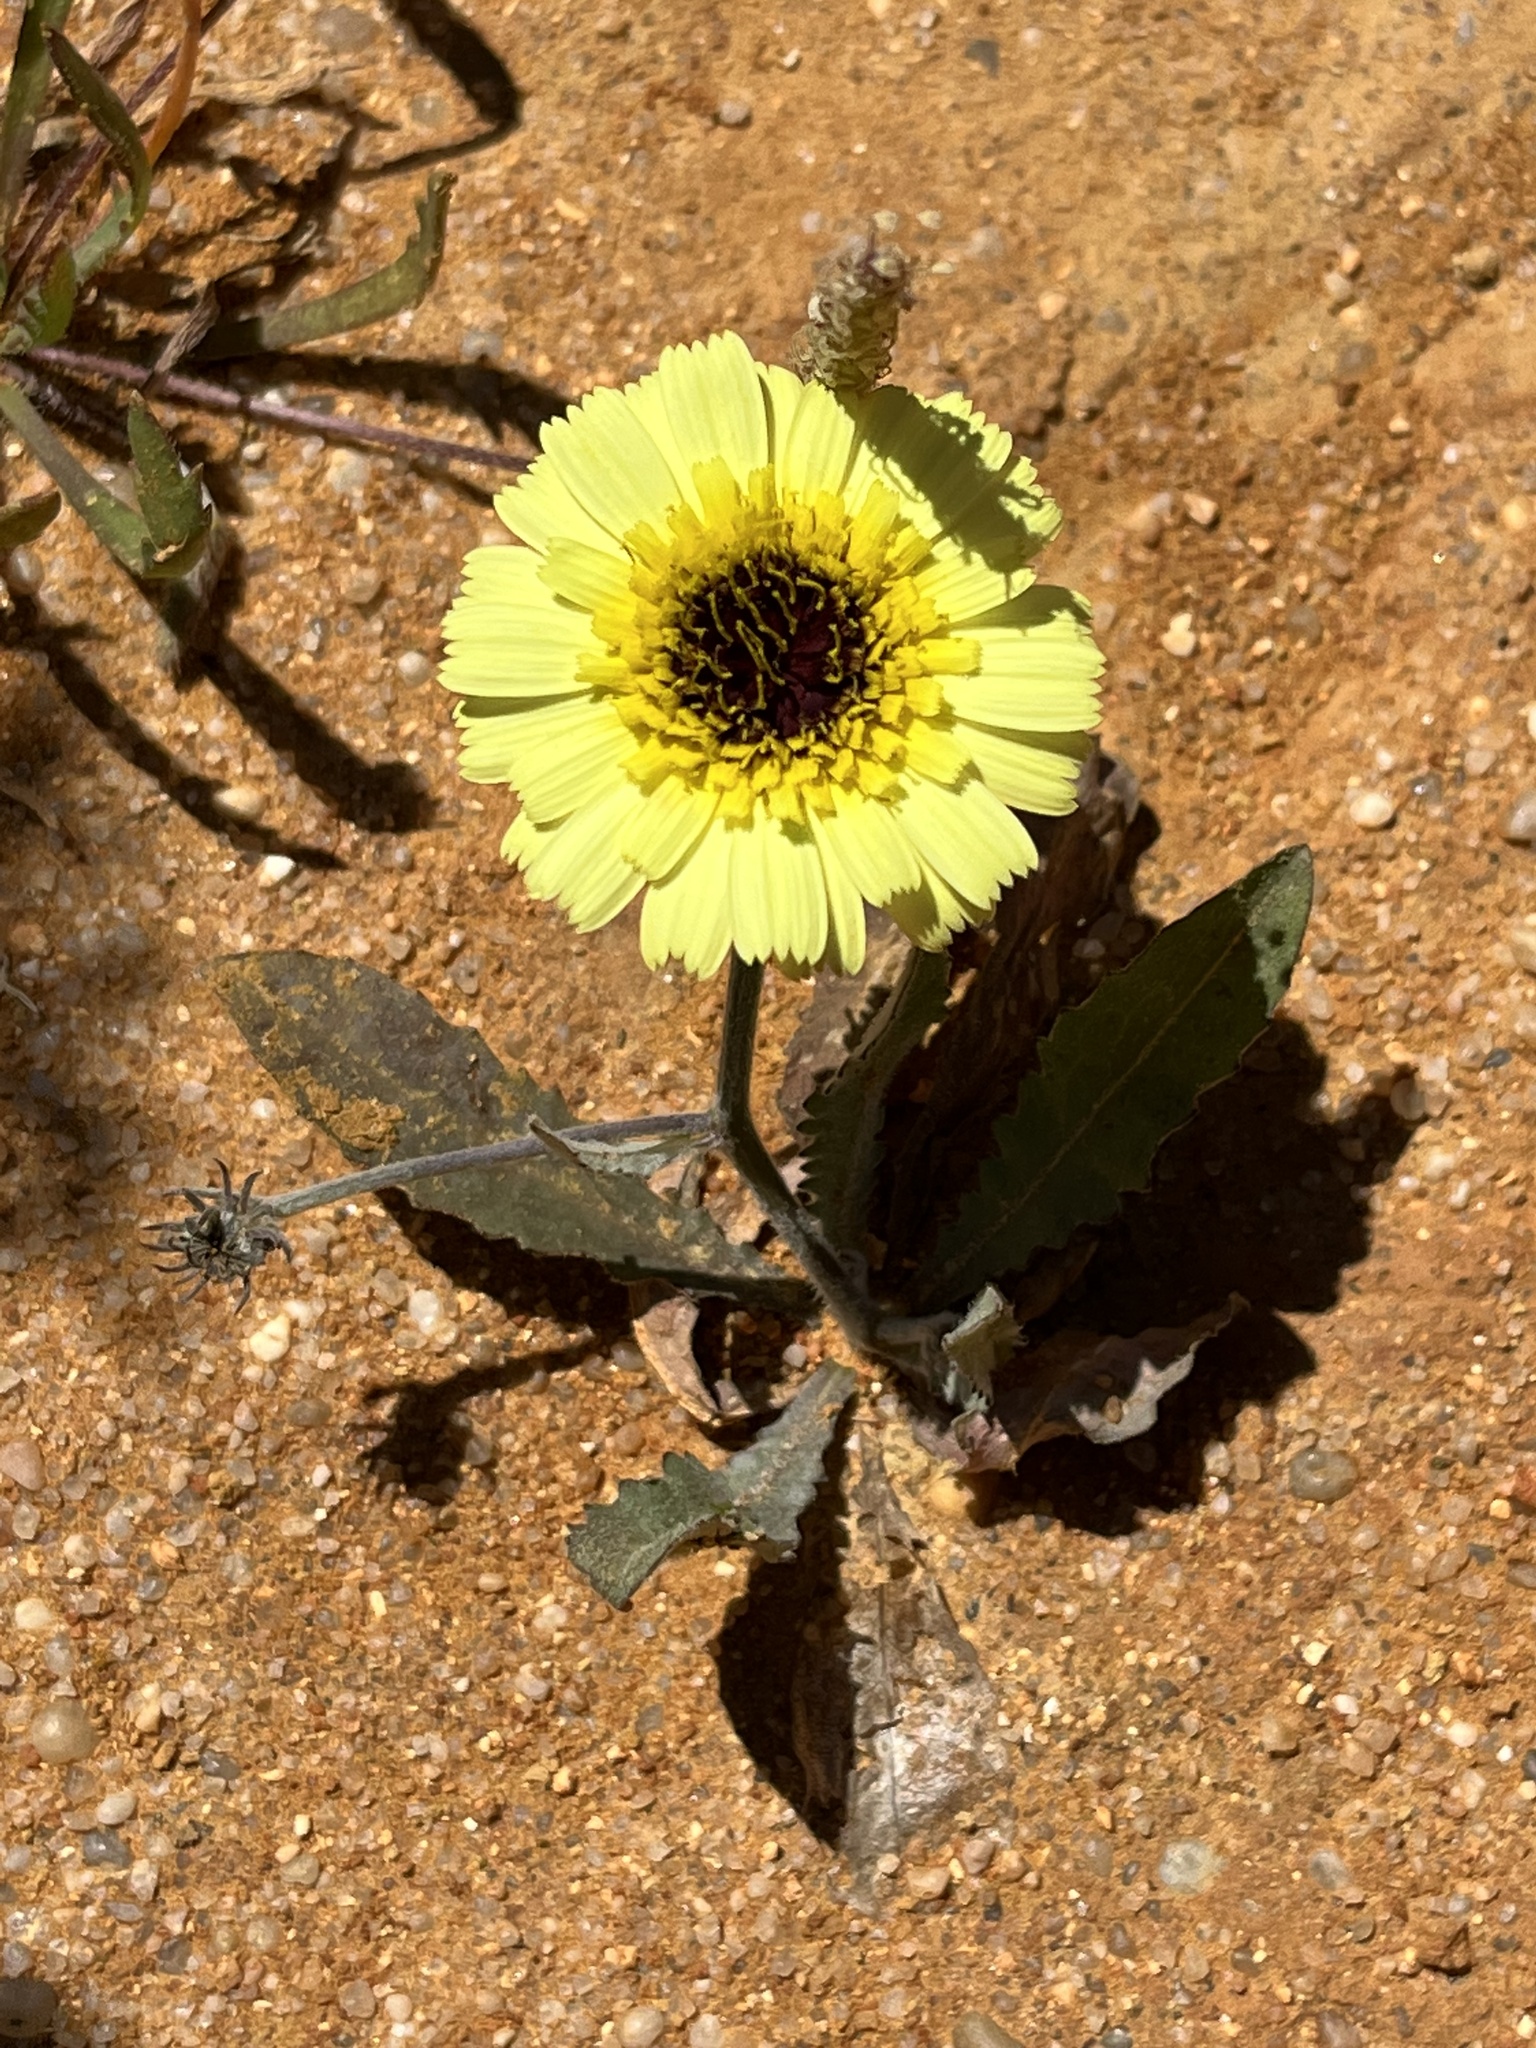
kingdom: Plantae
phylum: Tracheophyta
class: Magnoliopsida
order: Asterales
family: Asteraceae
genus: Tolpis
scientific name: Tolpis barbata
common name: Yellow hawkweed
